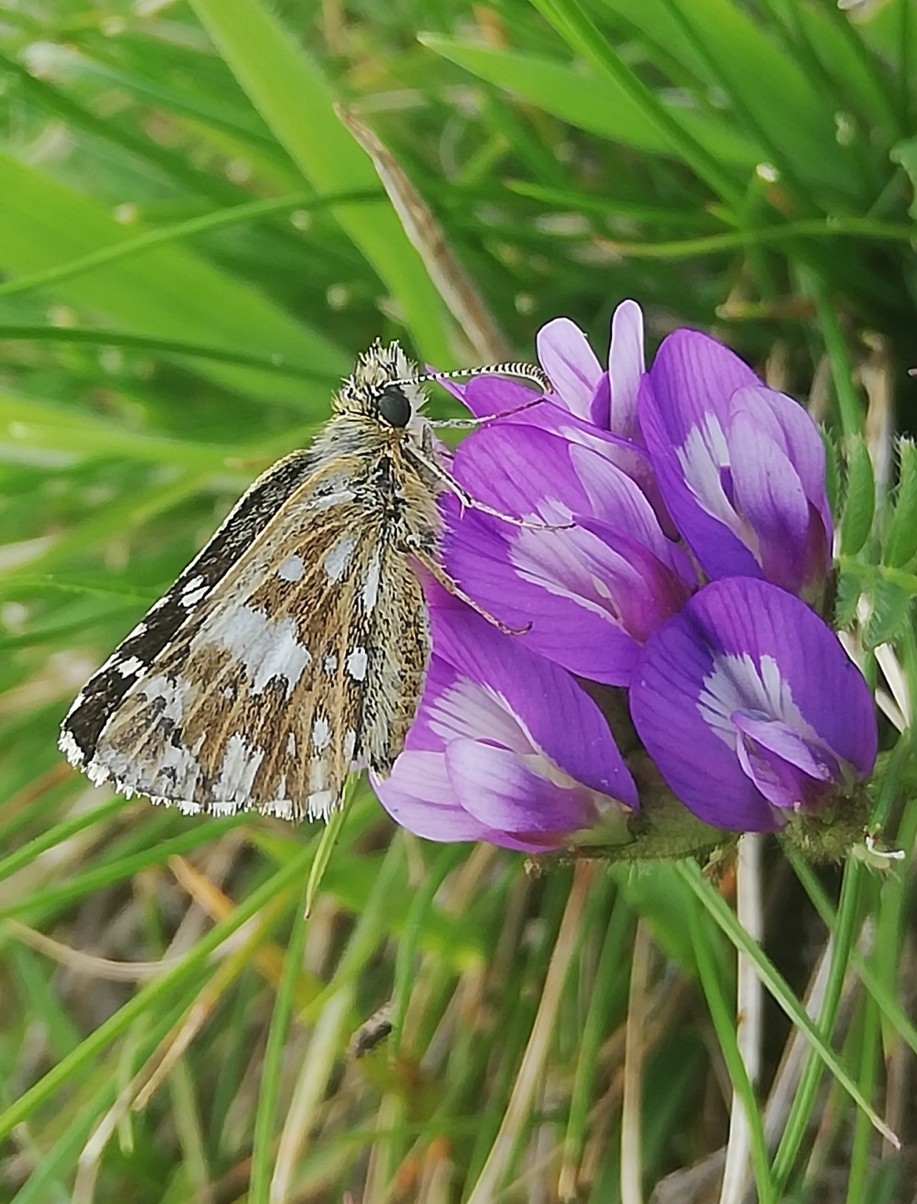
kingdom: Animalia
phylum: Arthropoda
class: Insecta
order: Lepidoptera
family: Hesperiidae
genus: Pyrgus
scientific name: Pyrgus malvae
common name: Grizzled skipper
